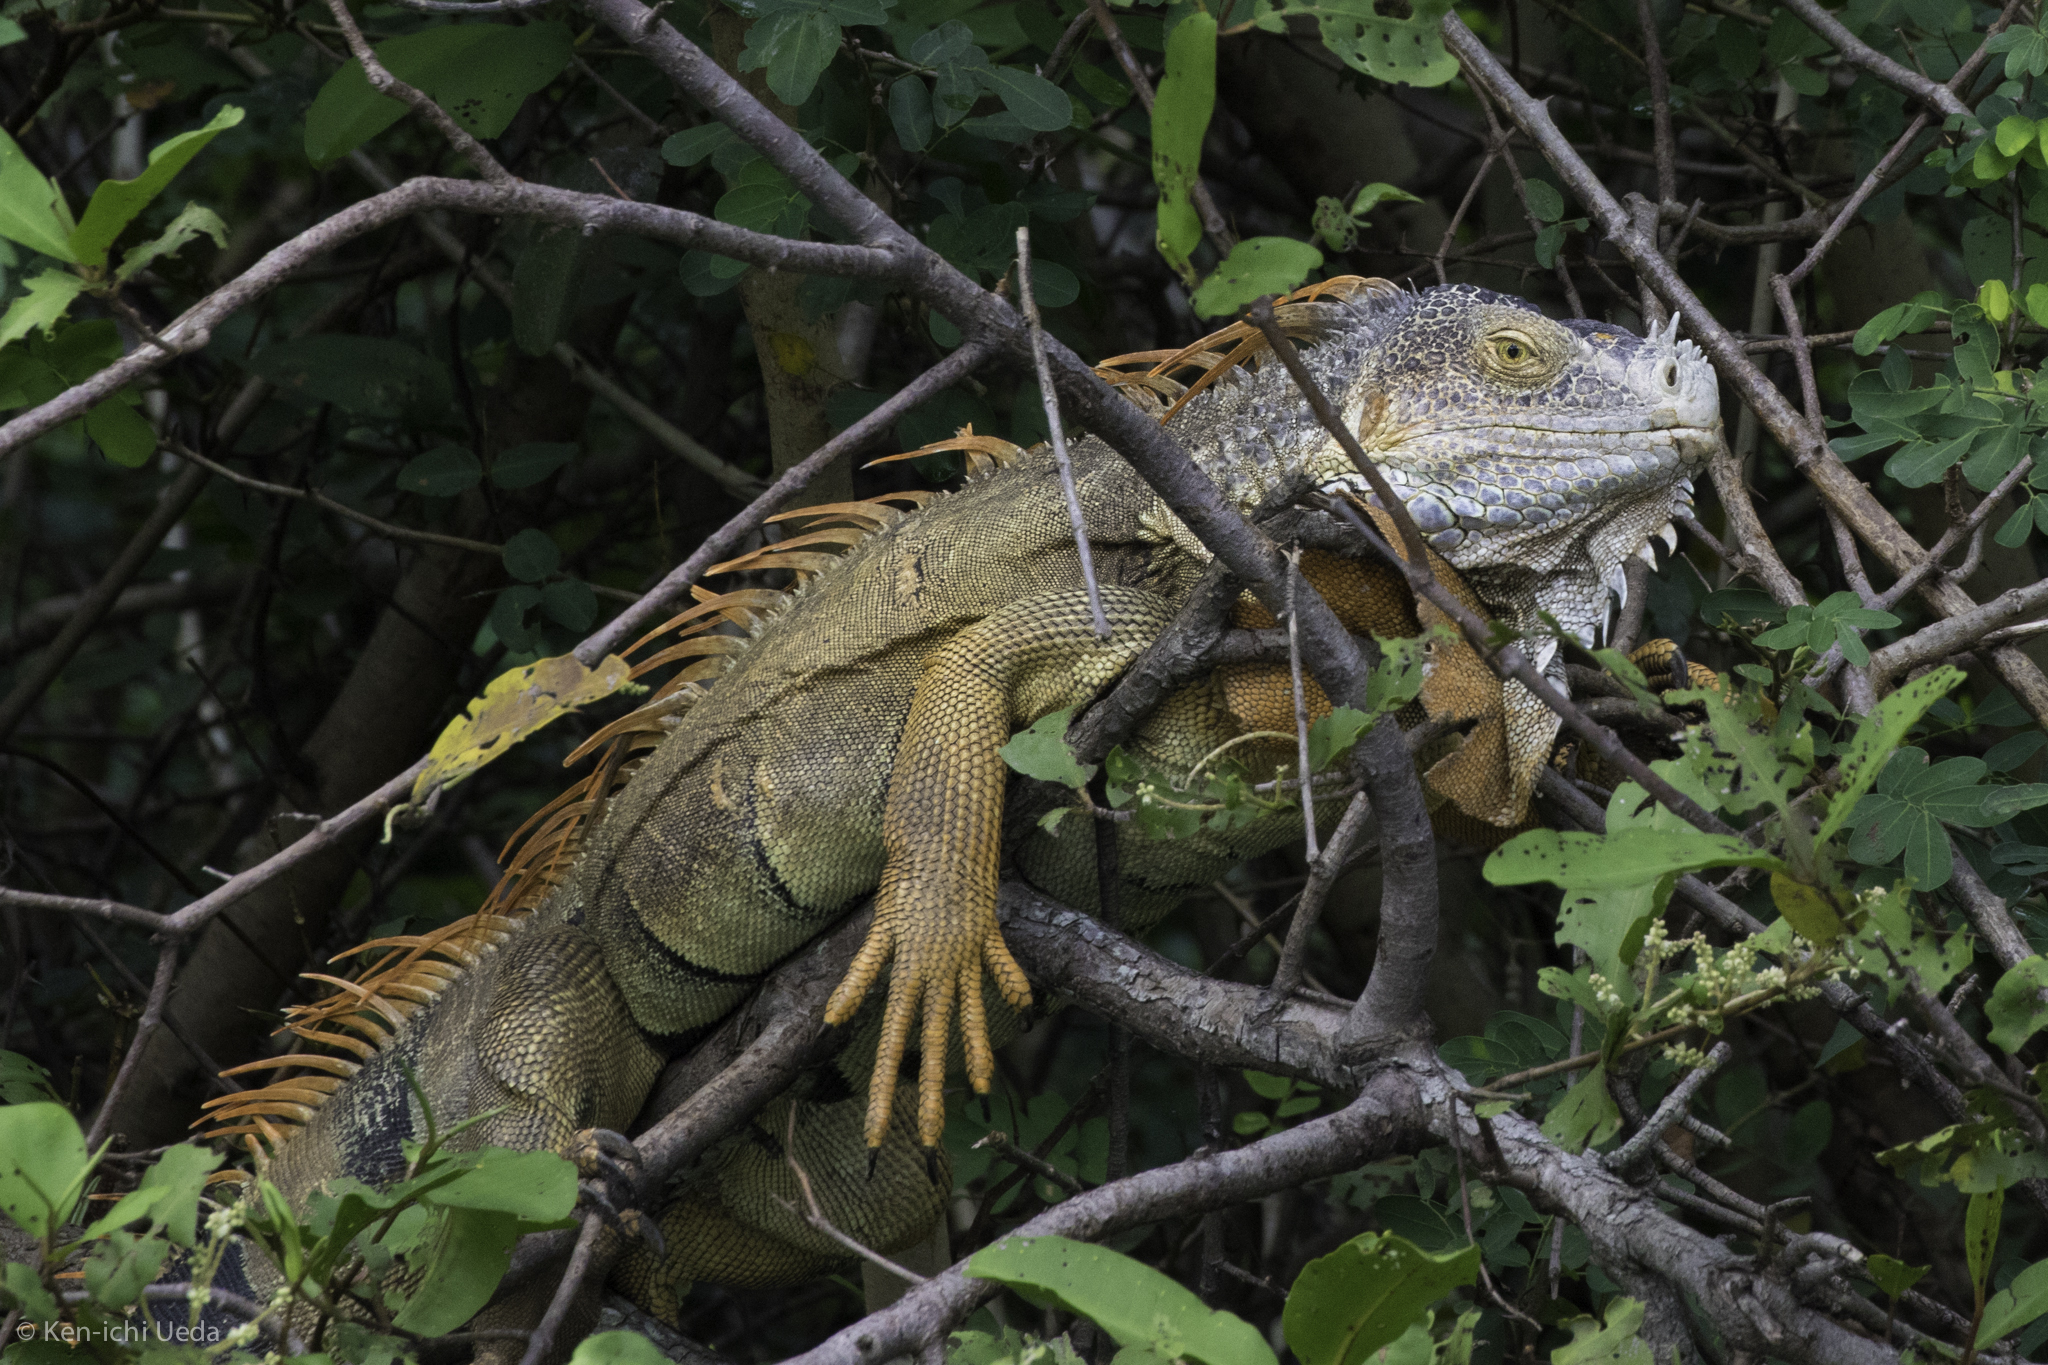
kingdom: Animalia
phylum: Chordata
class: Squamata
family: Iguanidae
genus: Iguana
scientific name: Iguana iguana
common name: Green iguana
